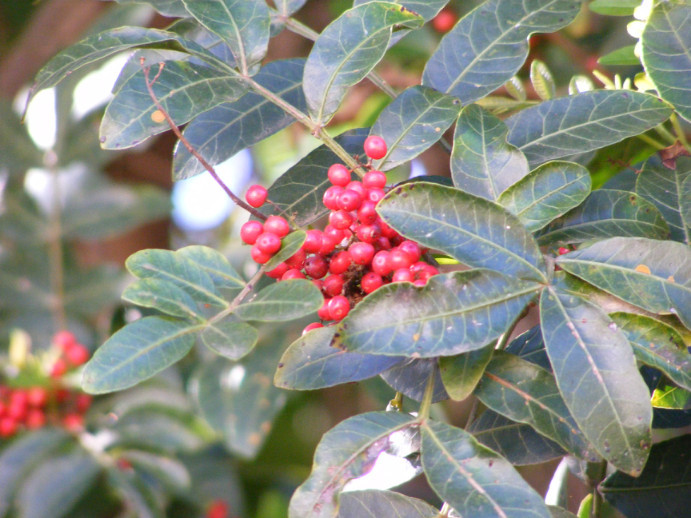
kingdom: Plantae
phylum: Tracheophyta
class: Magnoliopsida
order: Sapindales
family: Anacardiaceae
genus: Schinus
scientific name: Schinus terebinthifolia
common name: Brazilian peppertree
